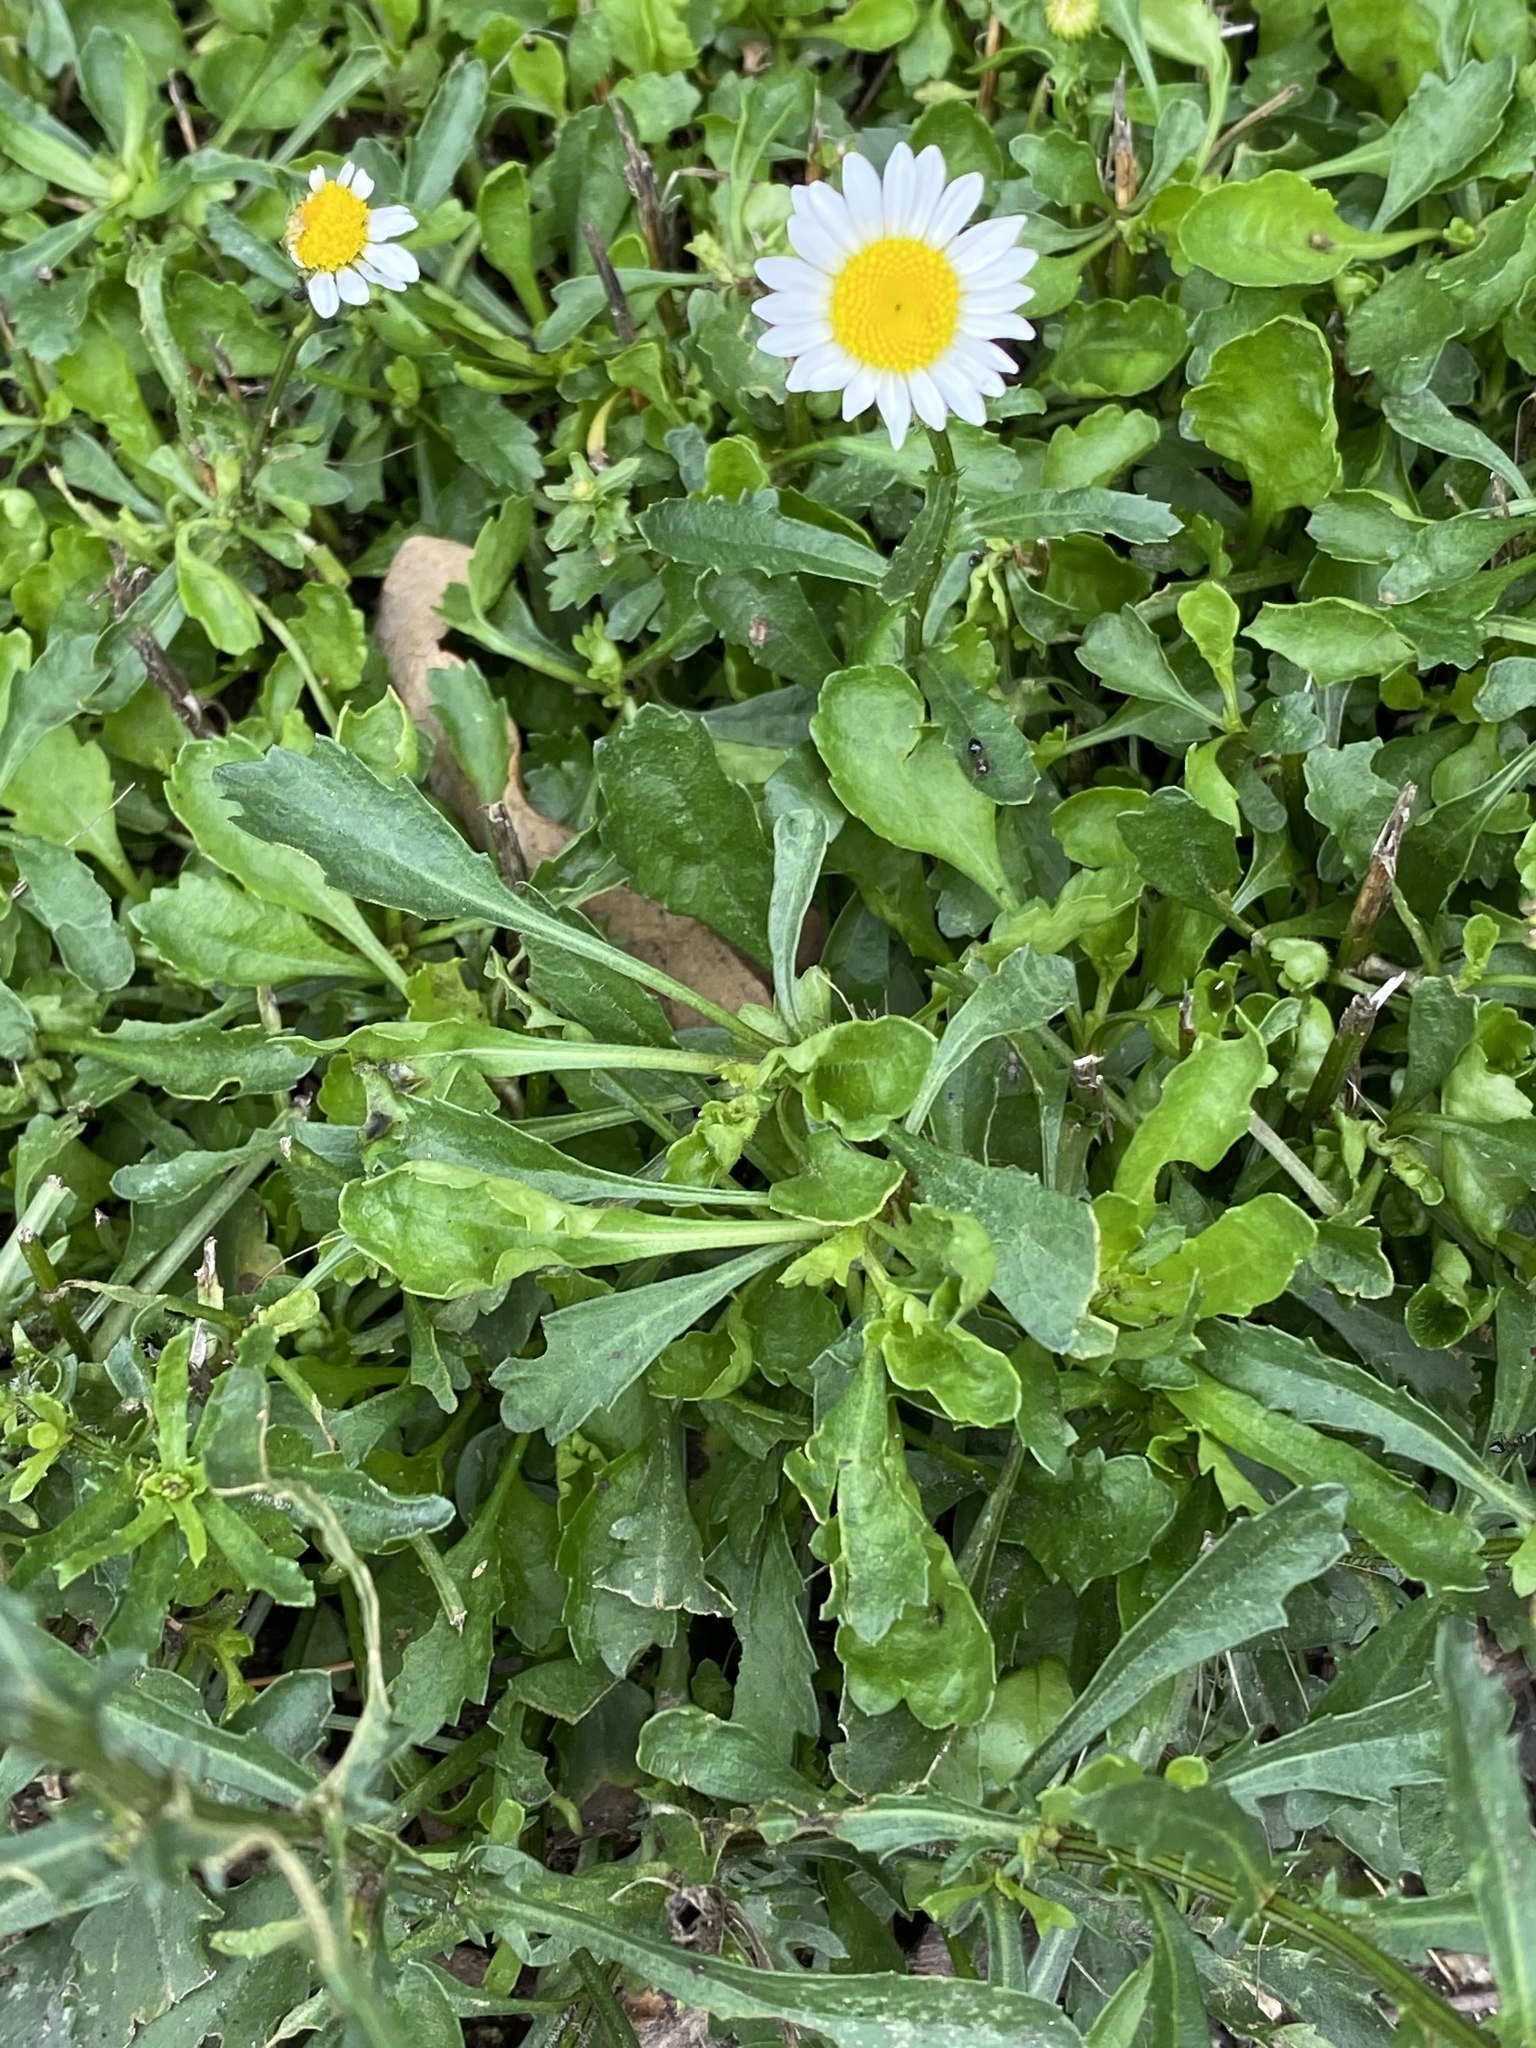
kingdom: Plantae
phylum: Tracheophyta
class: Magnoliopsida
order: Asterales
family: Asteraceae
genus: Leucanthemum
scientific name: Leucanthemum vulgare
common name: Oxeye daisy
